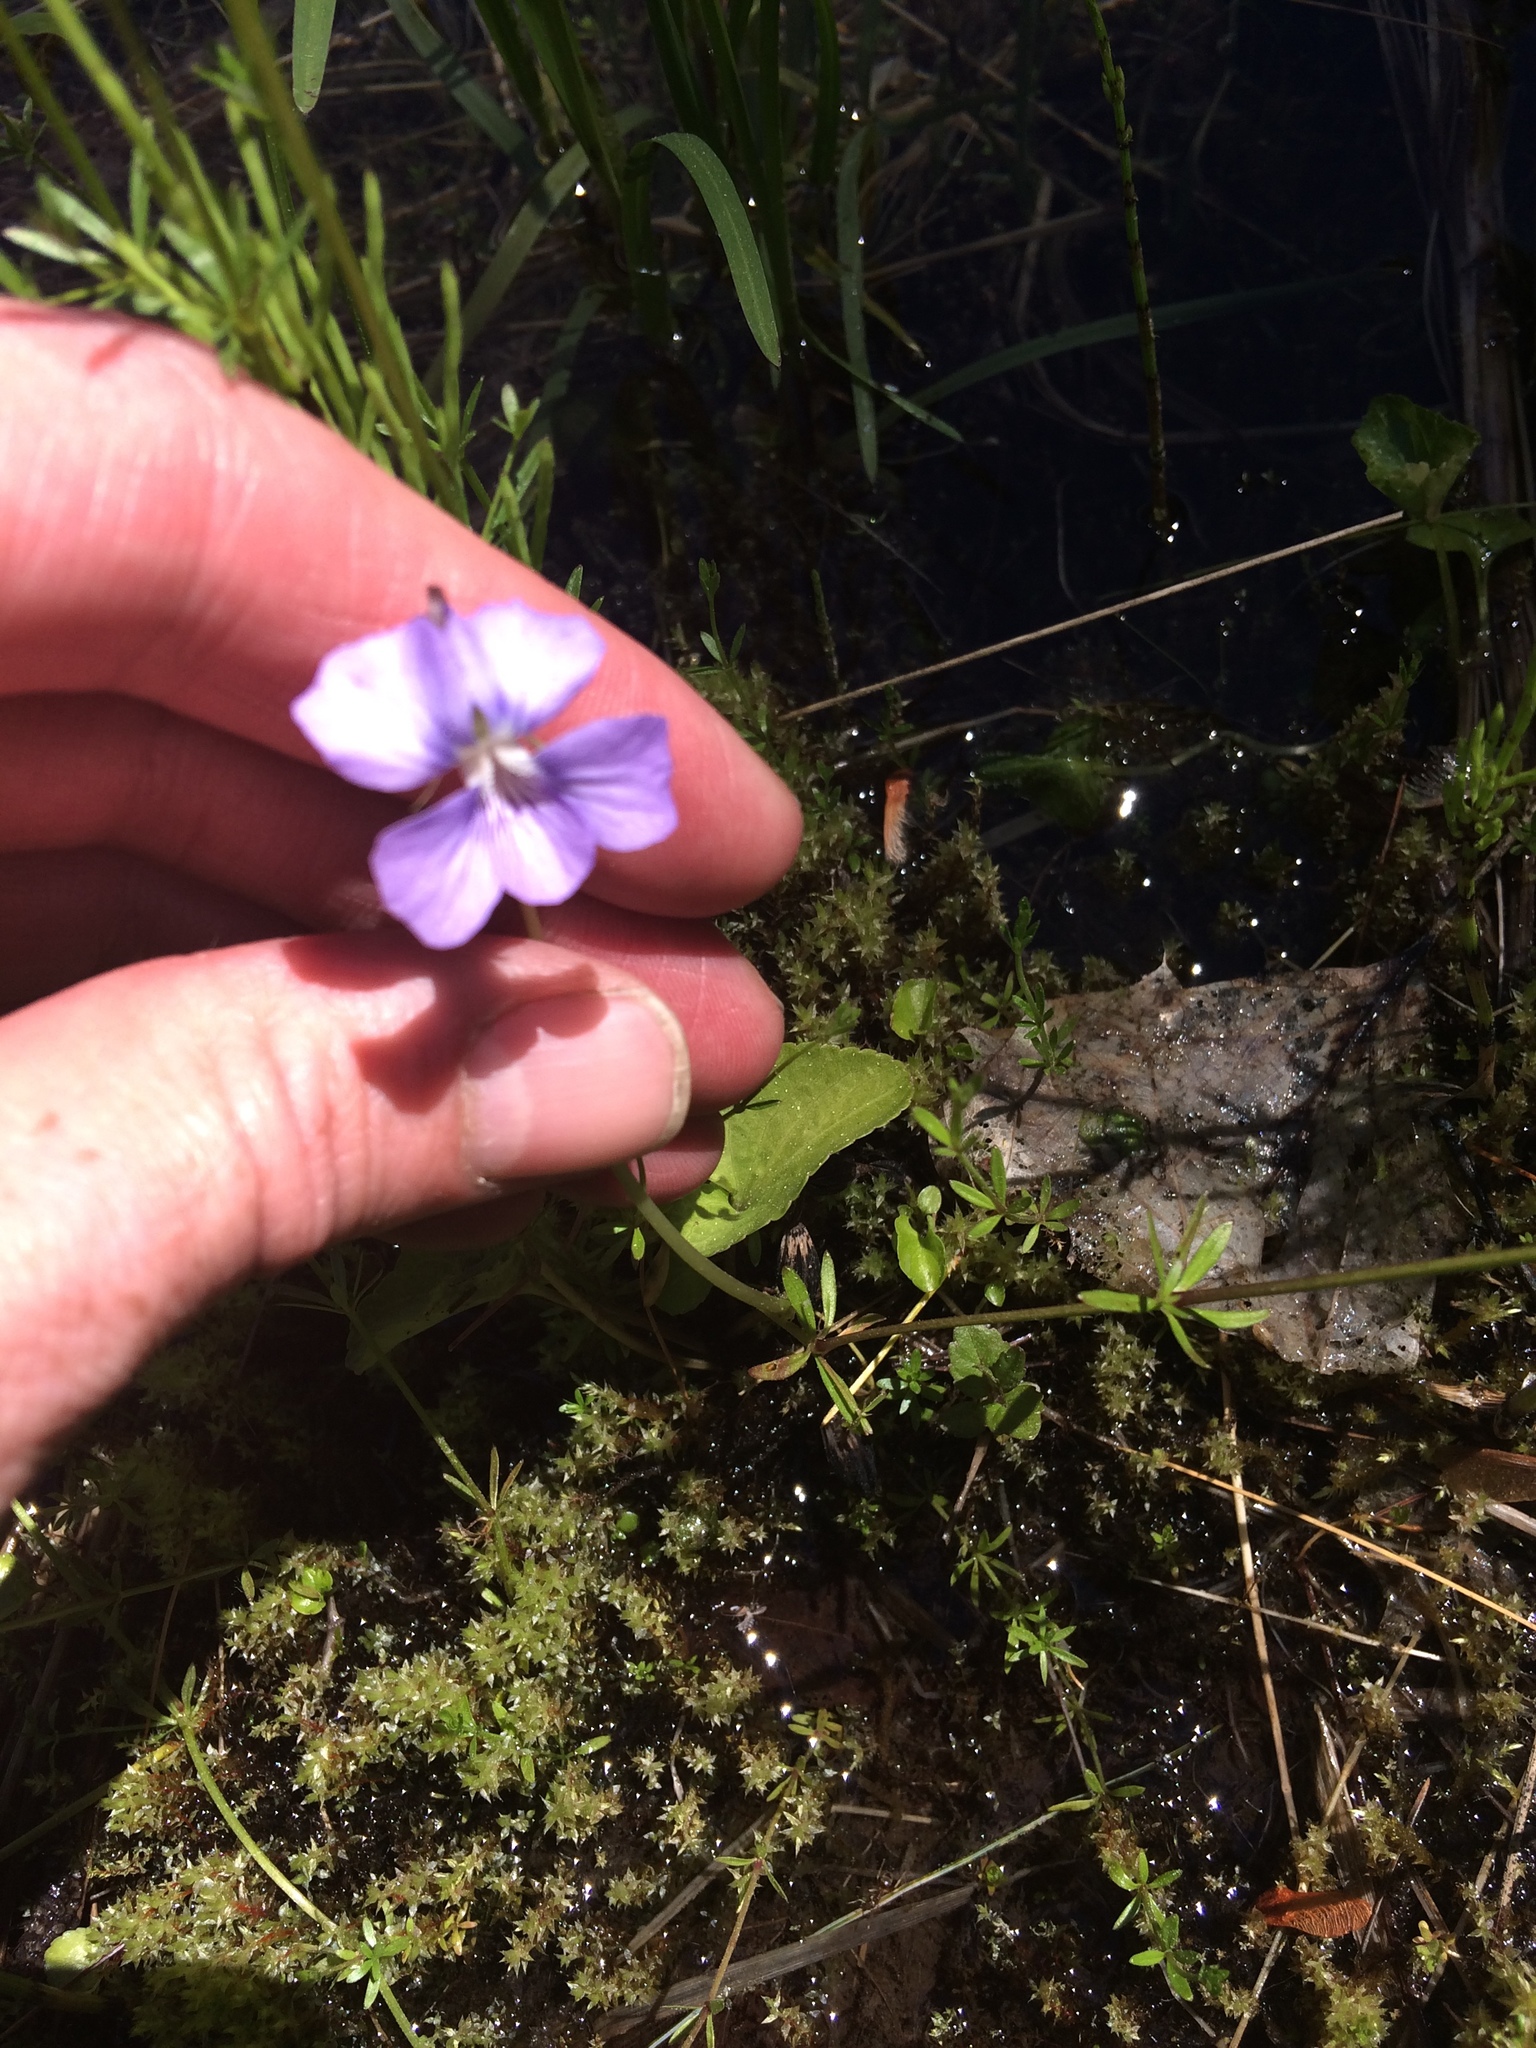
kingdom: Plantae
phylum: Tracheophyta
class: Magnoliopsida
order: Malpighiales
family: Violaceae
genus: Viola
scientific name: Viola
